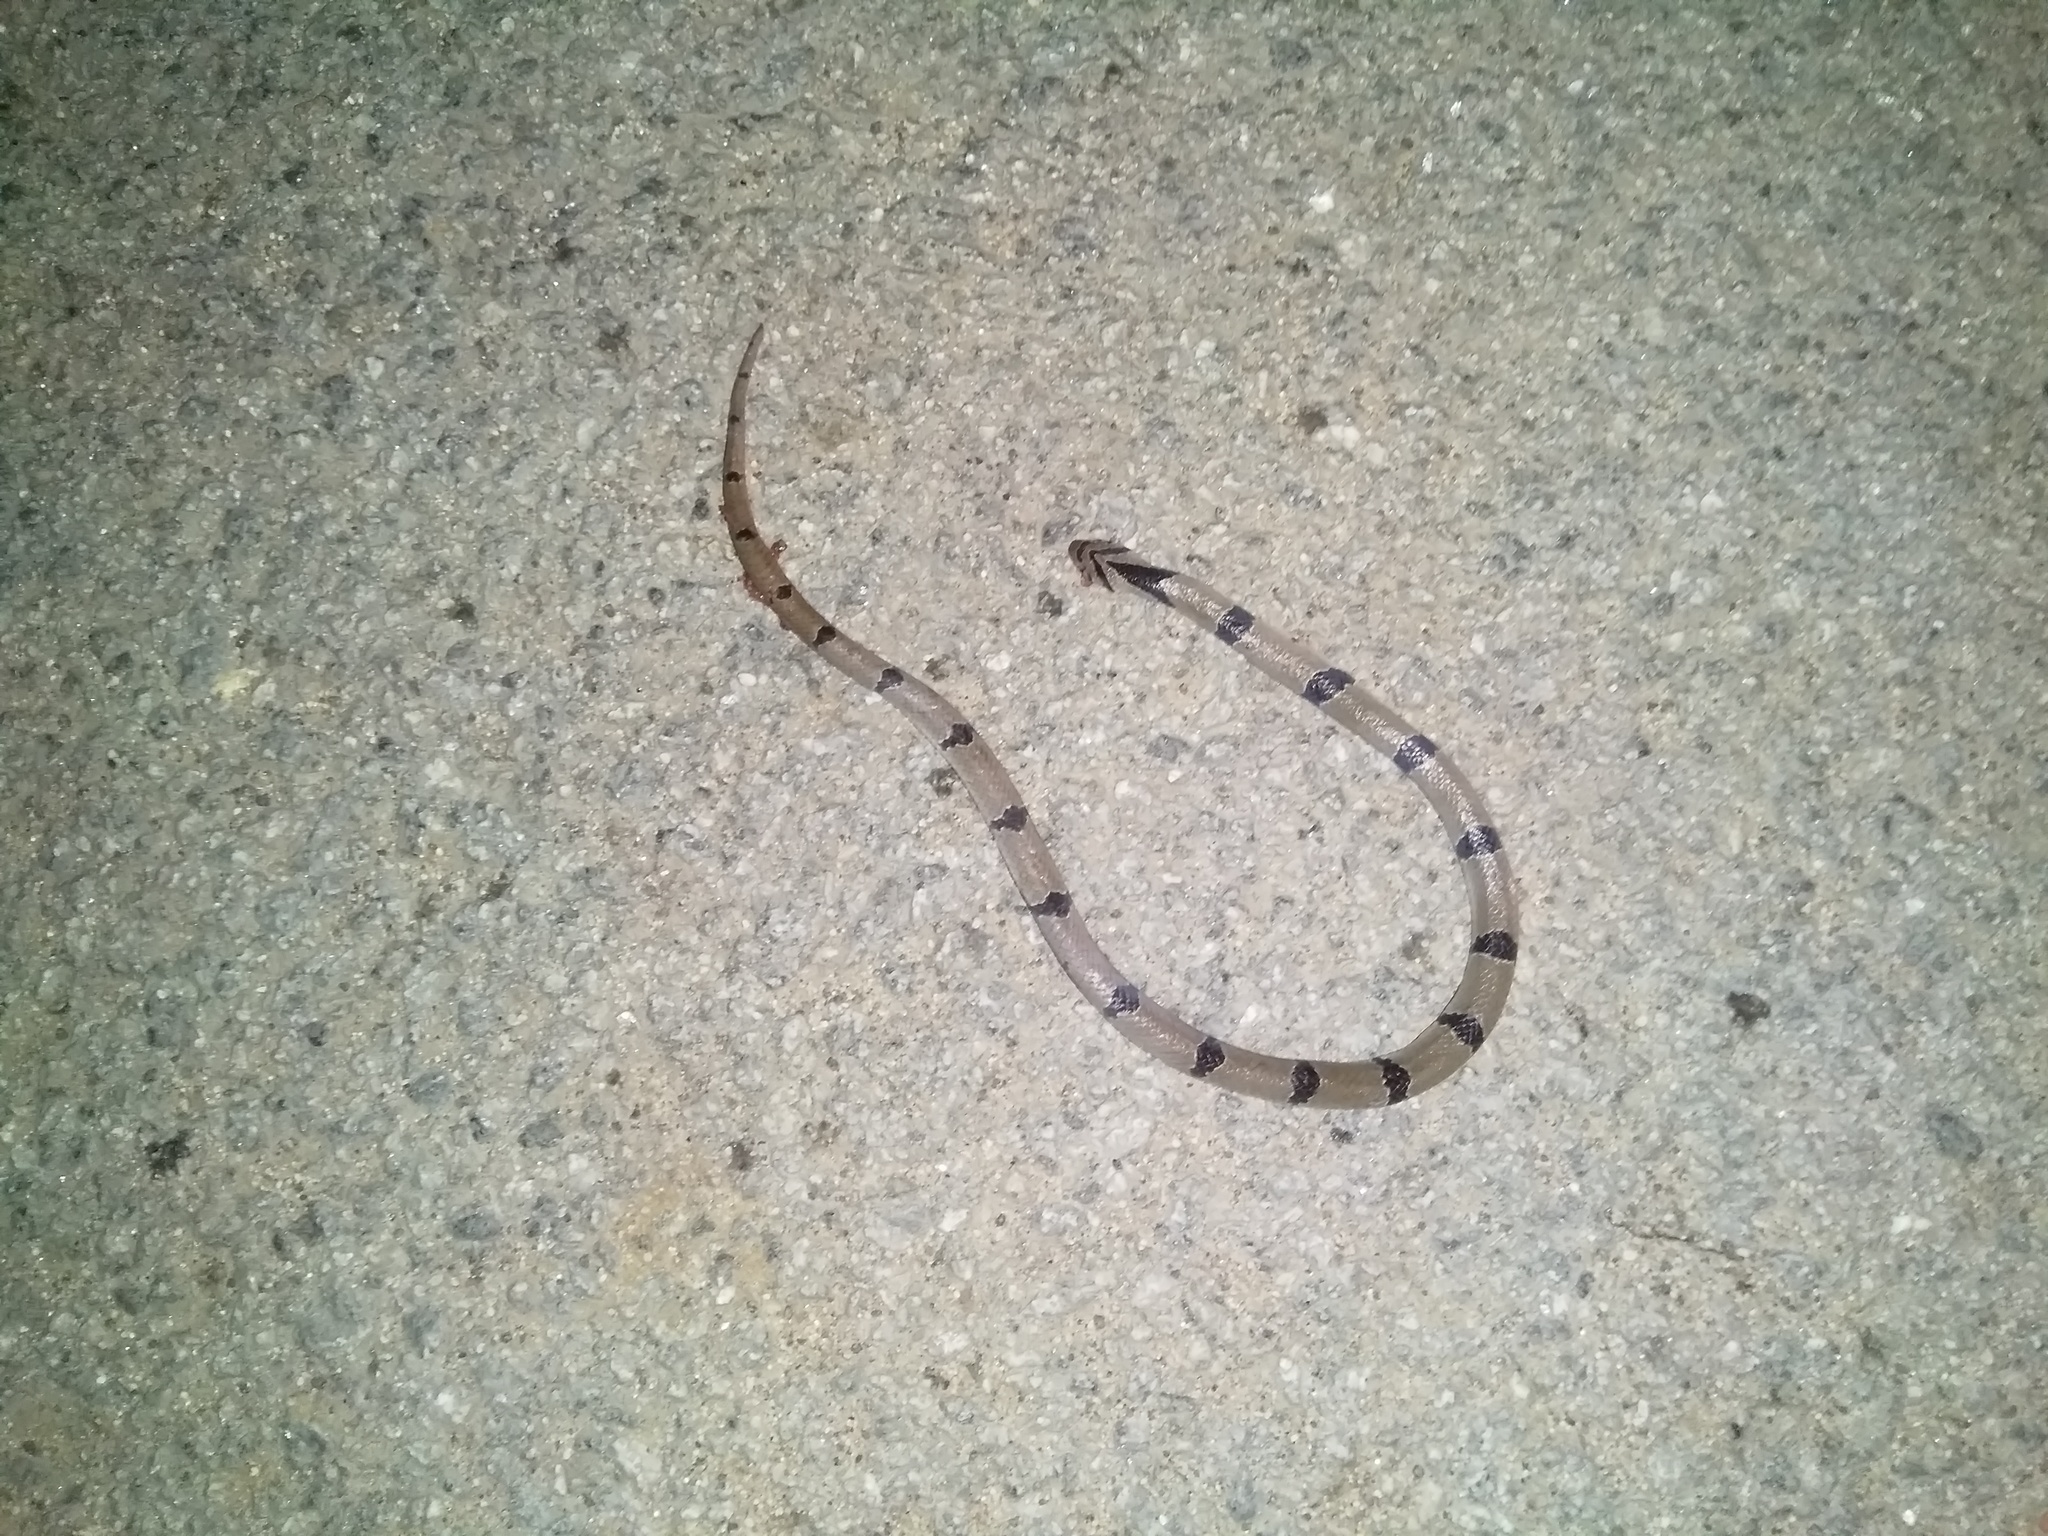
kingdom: Animalia
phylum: Chordata
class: Squamata
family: Colubridae
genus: Oligodon
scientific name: Oligodon arnensis
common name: Banded kukri
